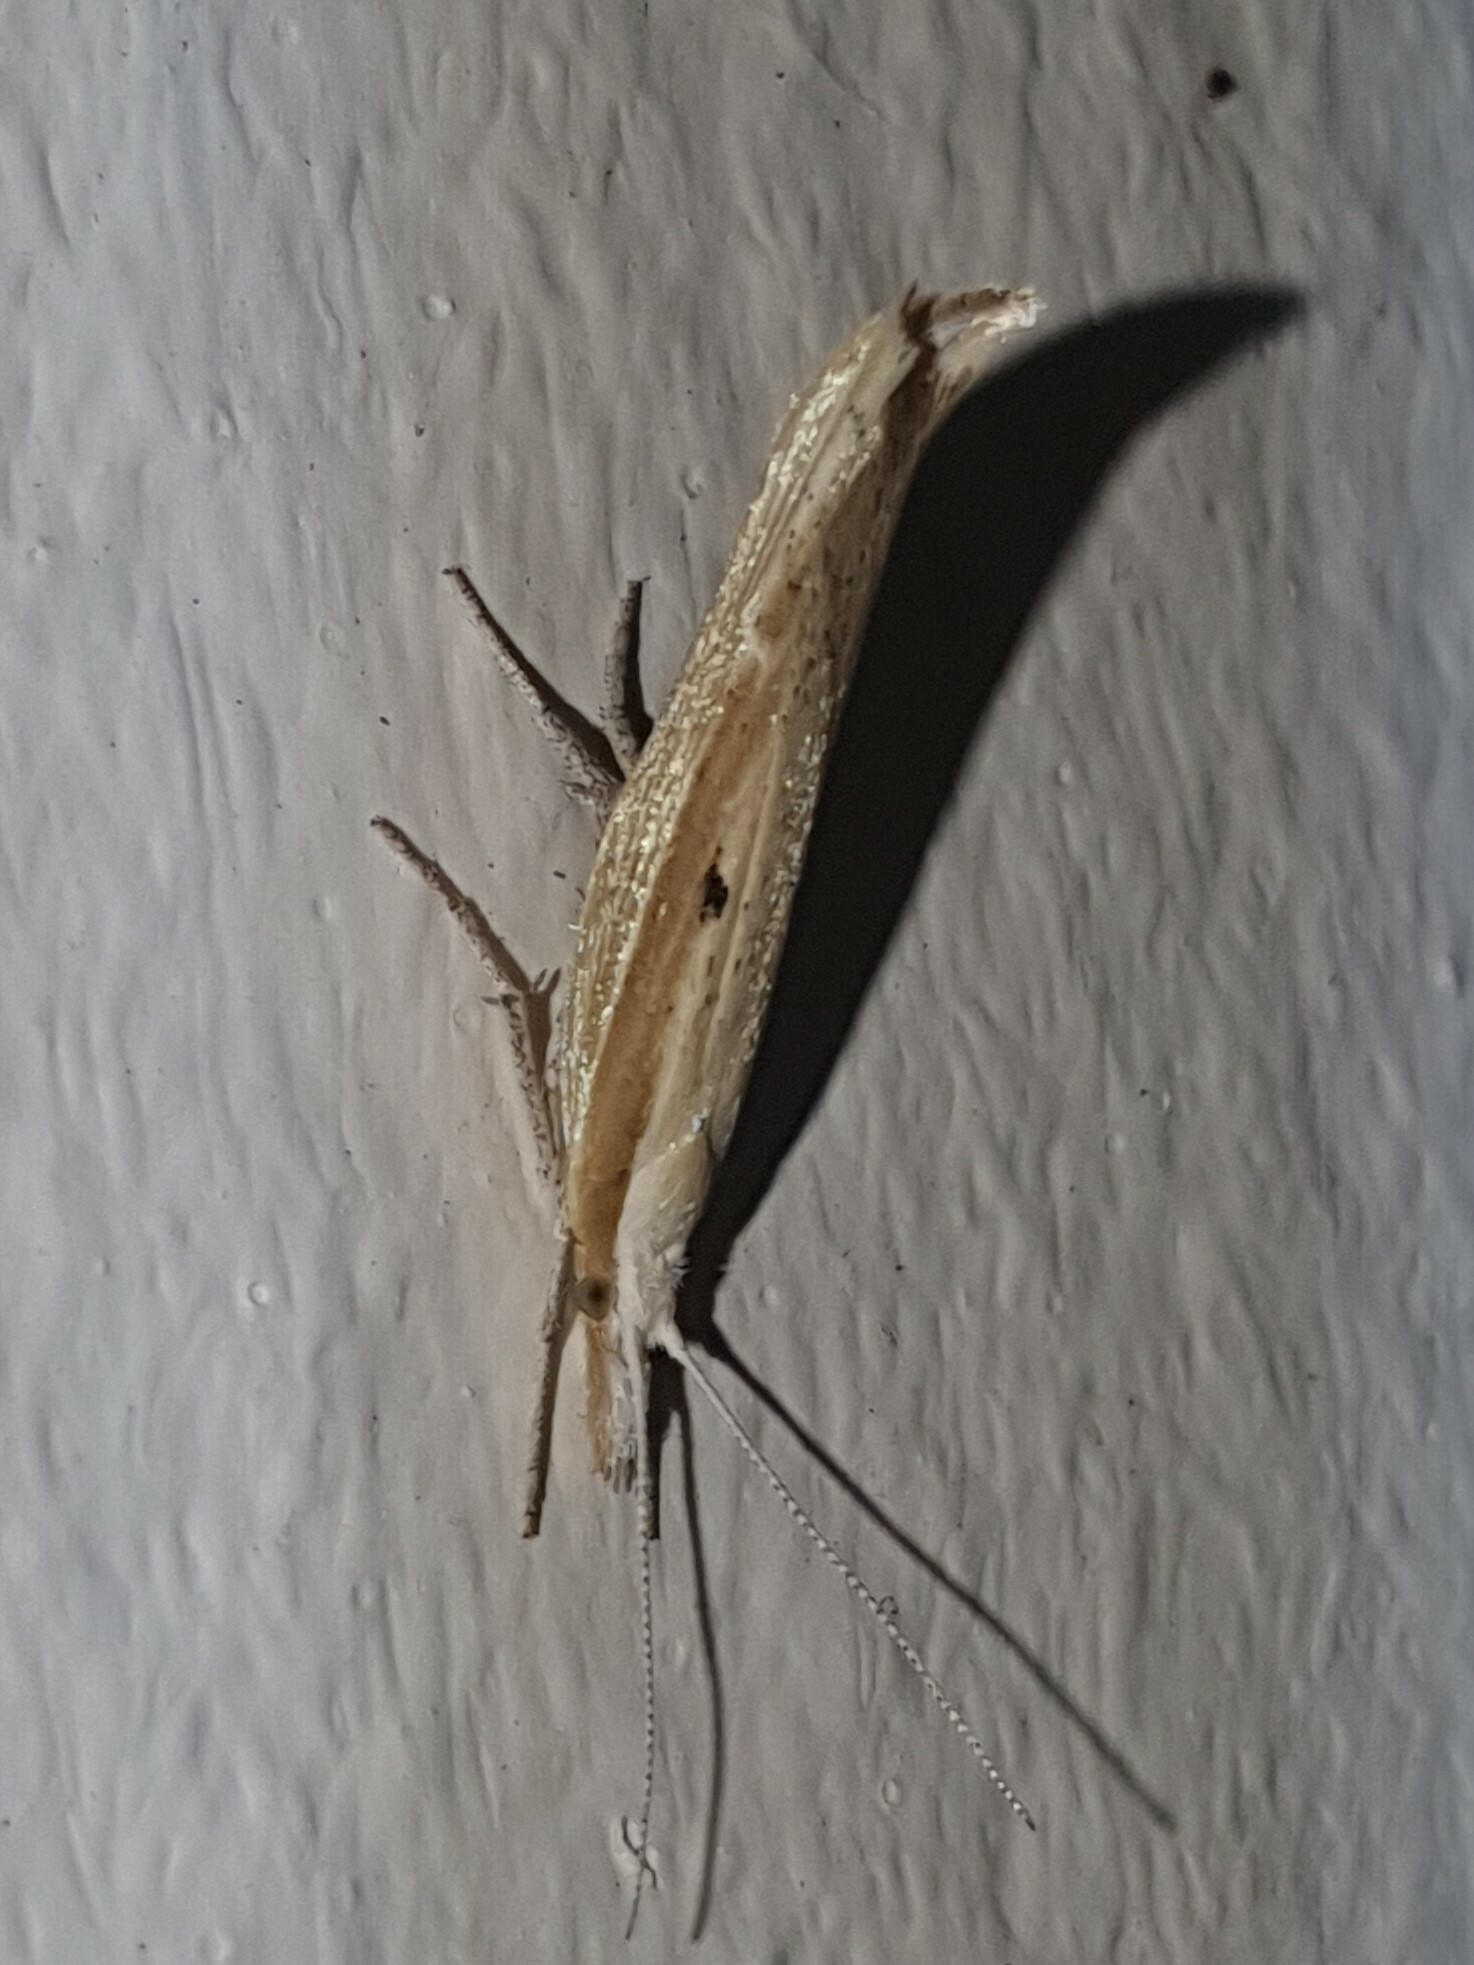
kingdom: Animalia
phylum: Arthropoda
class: Insecta
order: Lepidoptera
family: Ypsolophidae
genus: Ypsolopha
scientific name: Ypsolopha nemorella
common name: Hooked smudge
